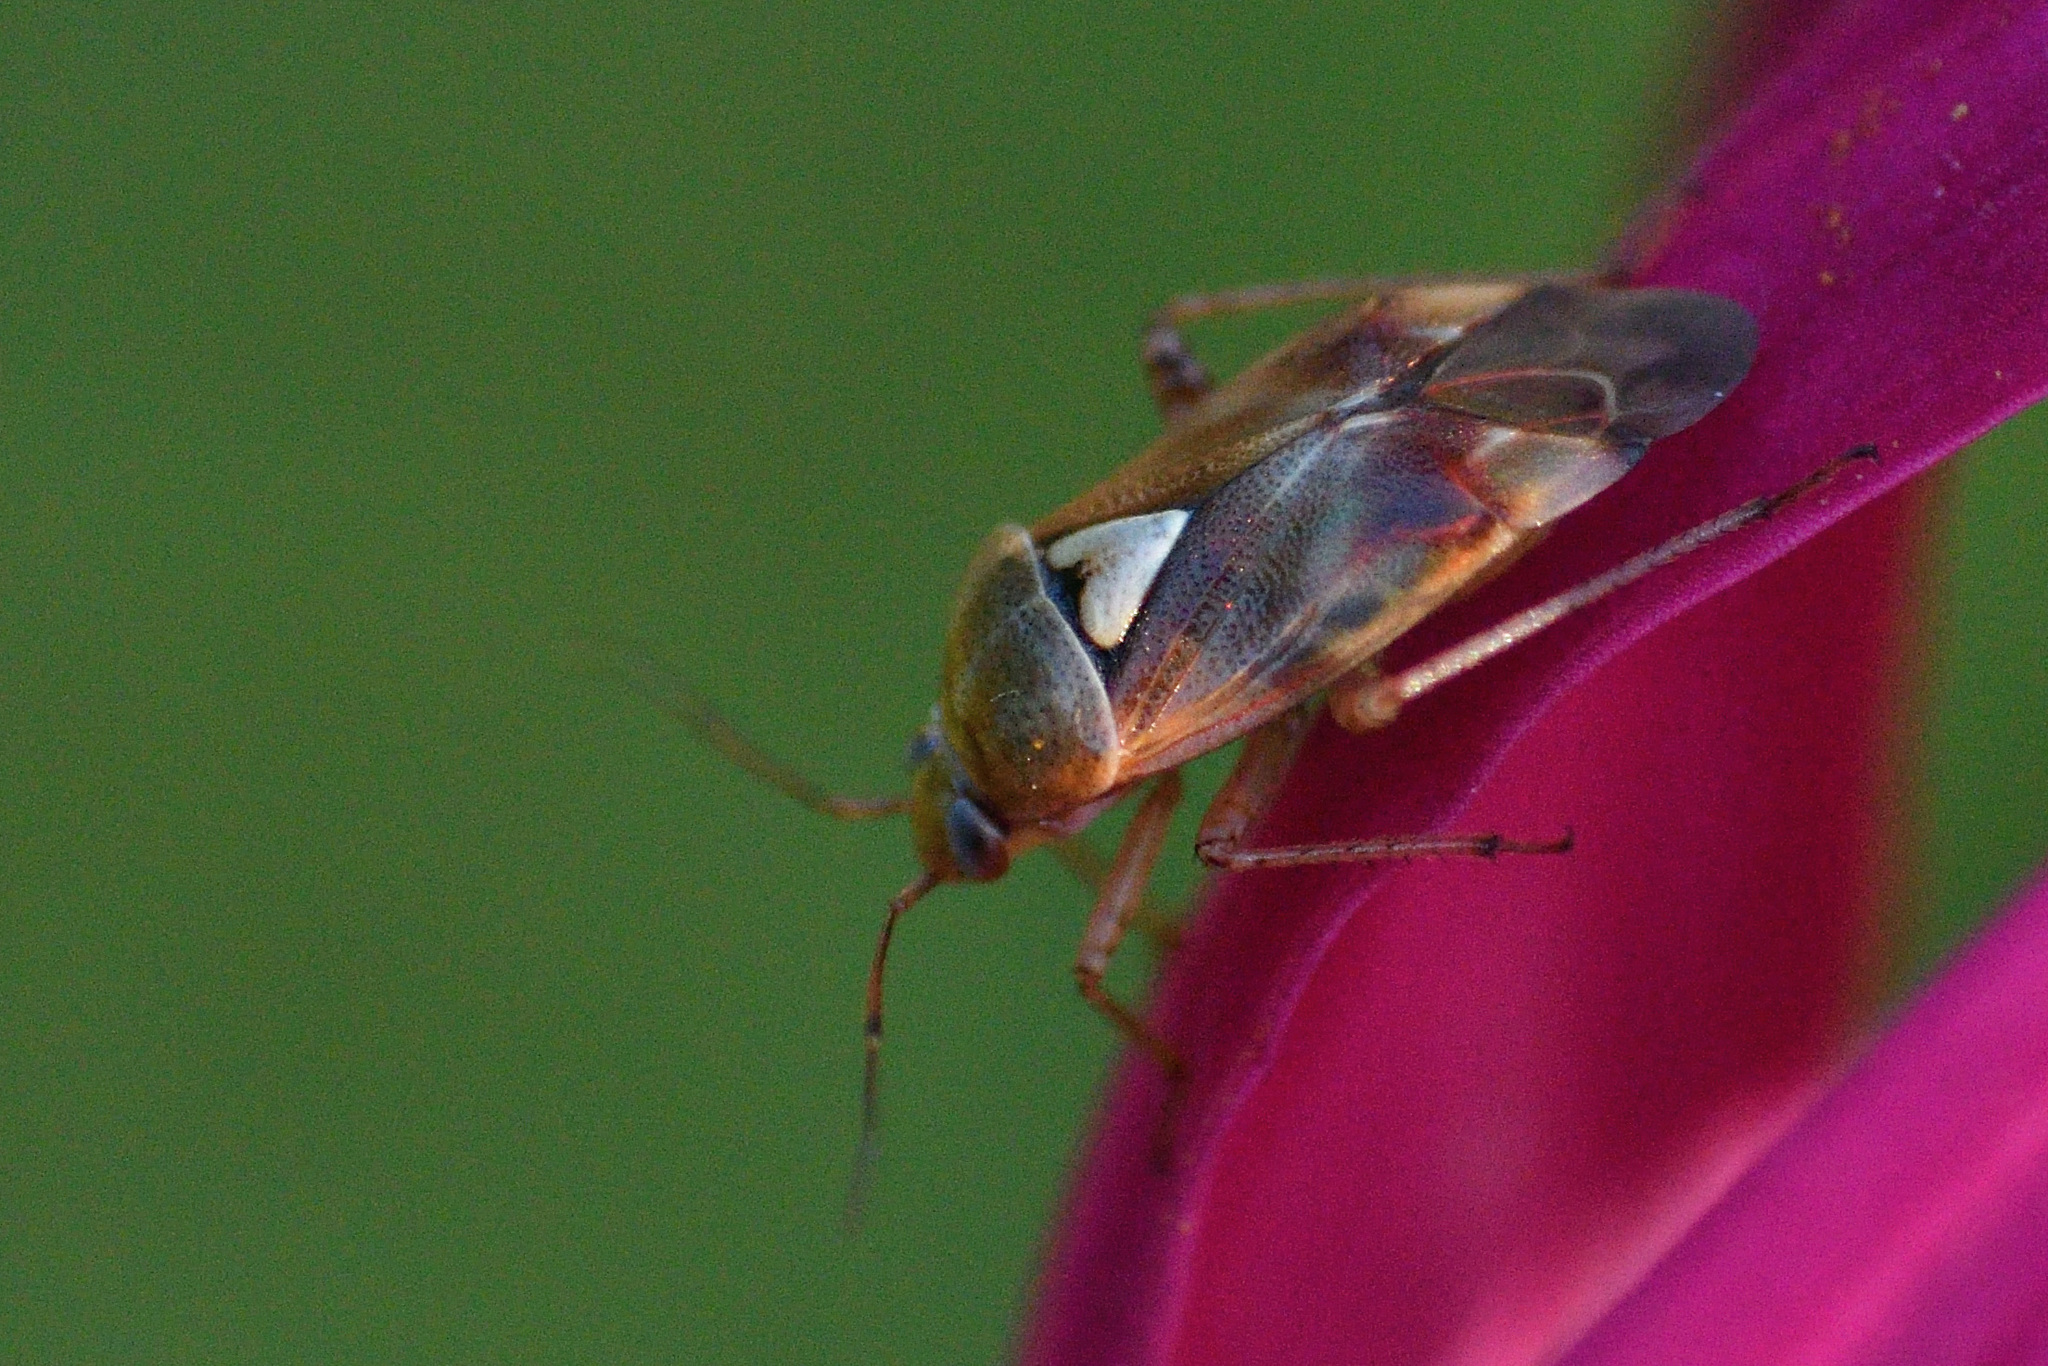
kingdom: Animalia
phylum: Arthropoda
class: Insecta
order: Hemiptera
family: Miridae
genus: Lygus
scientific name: Lygus pratensis
